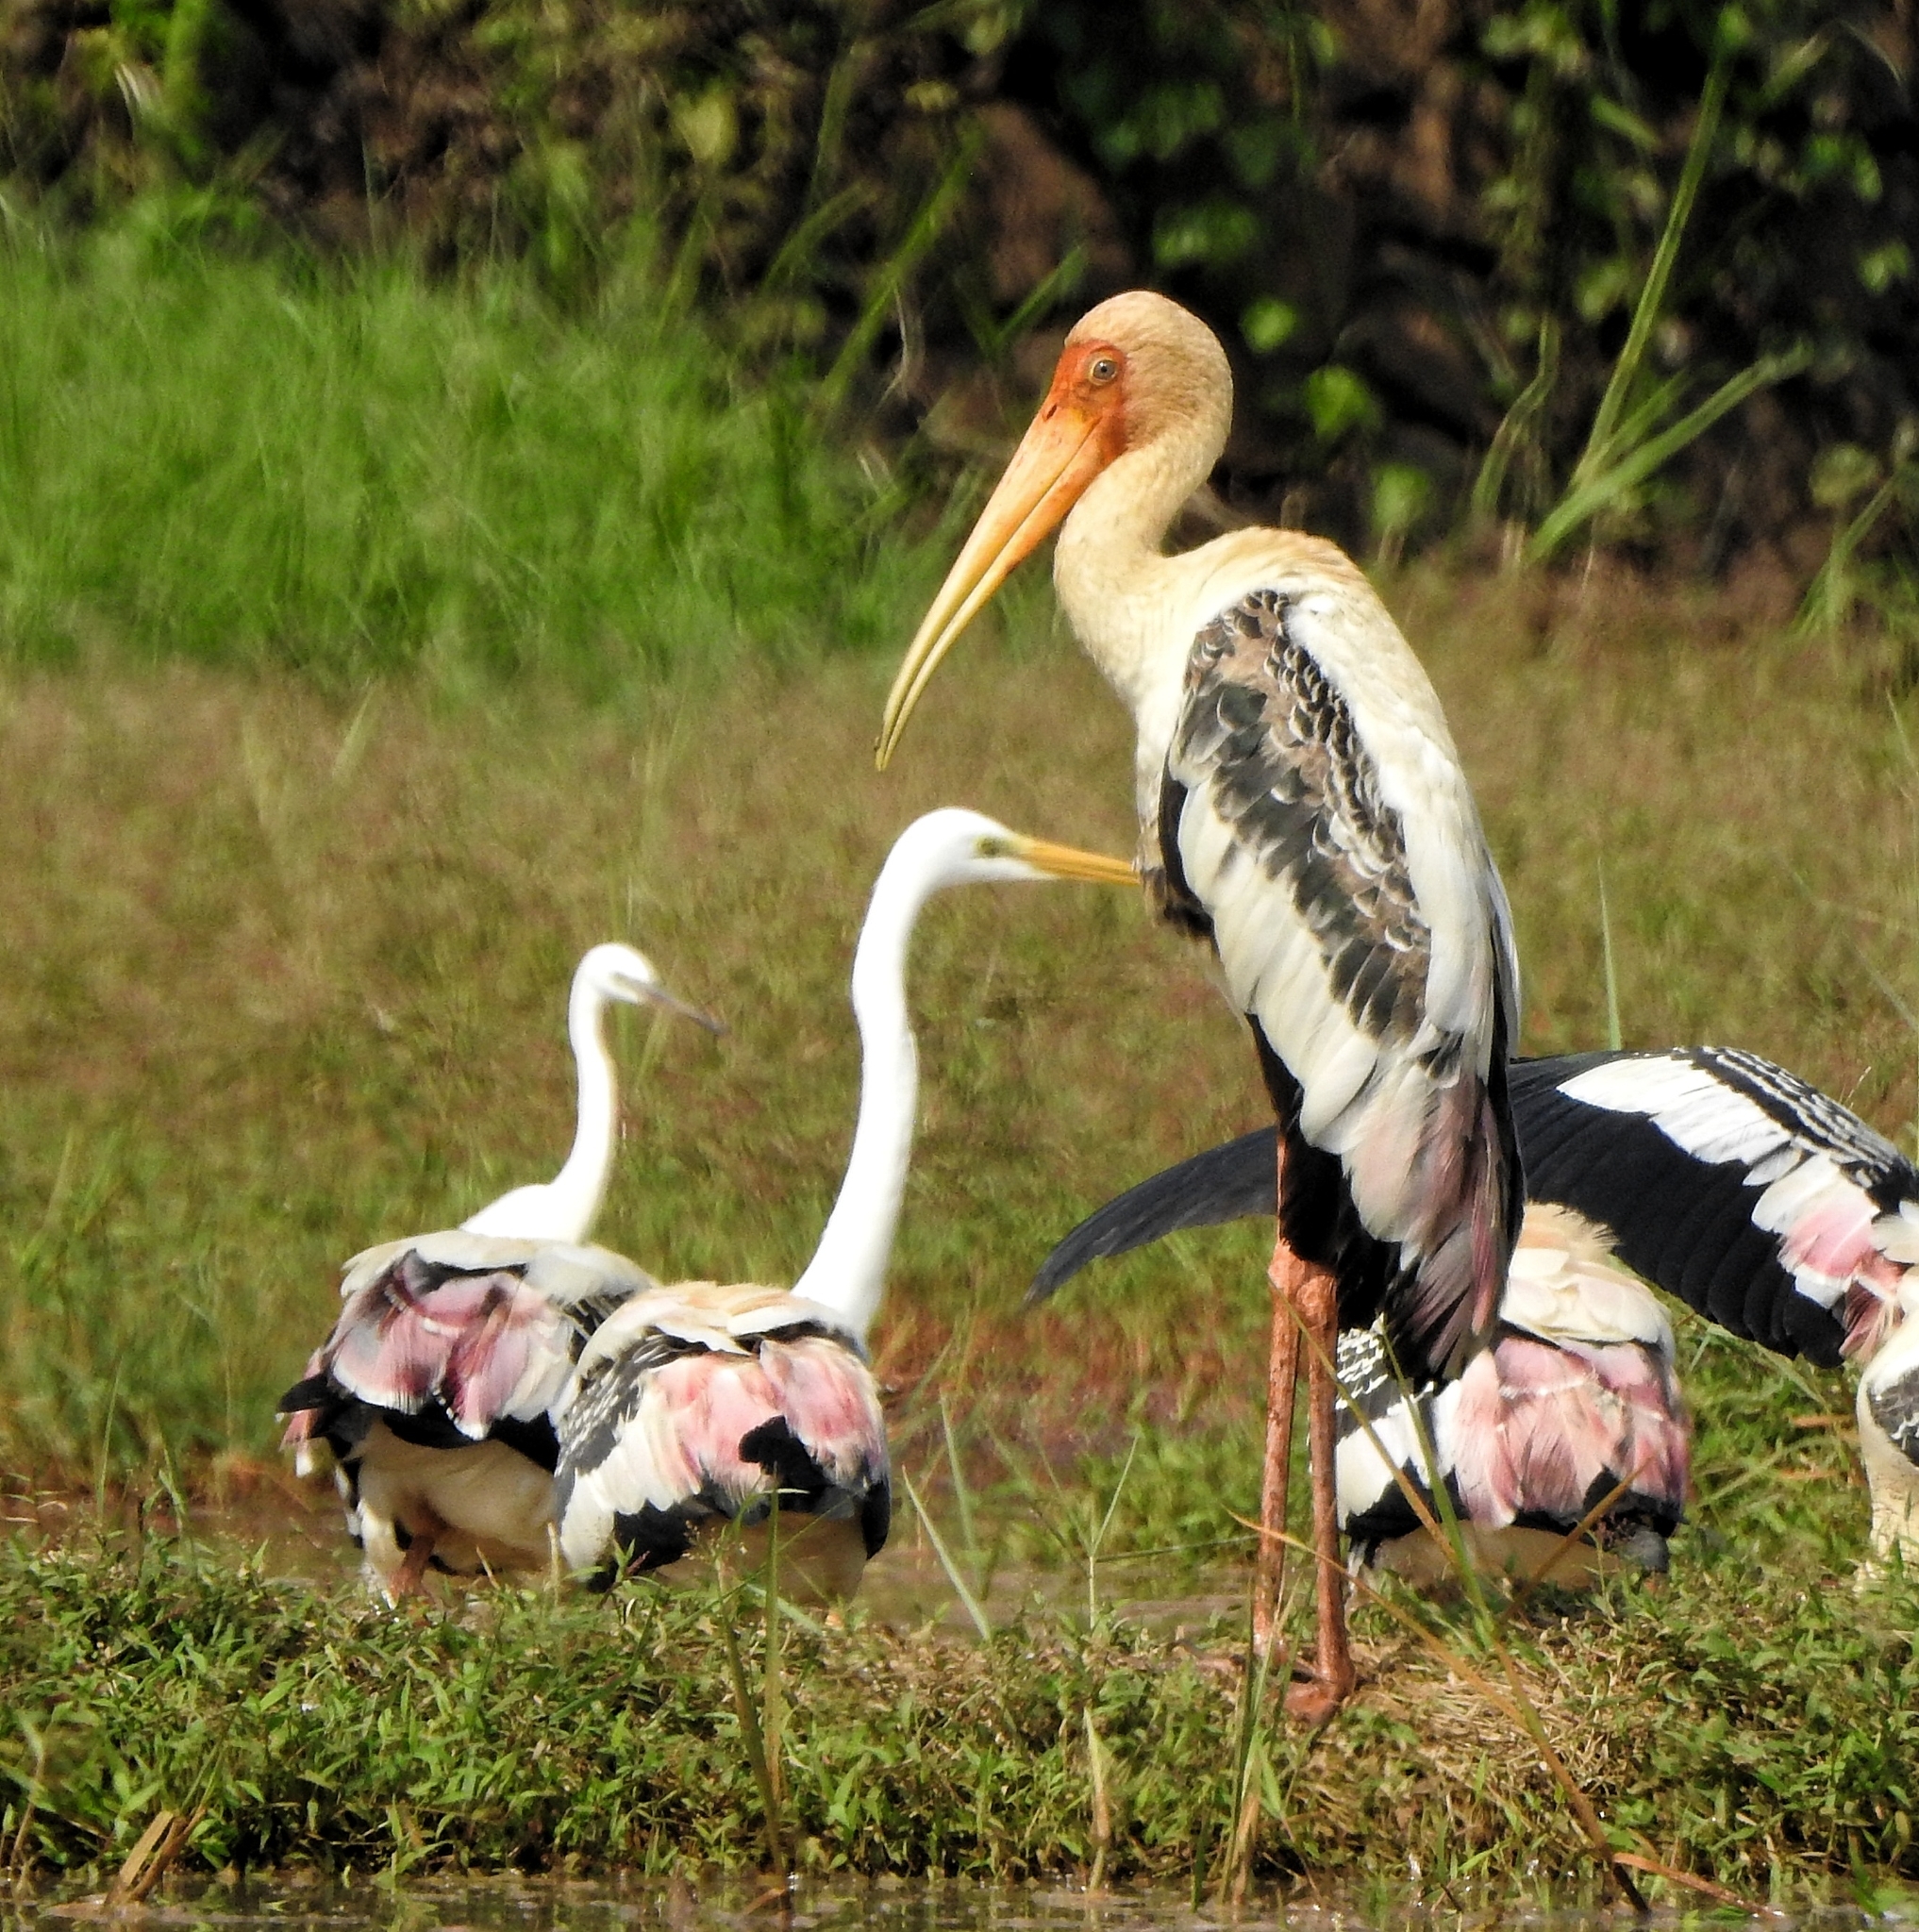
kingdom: Animalia
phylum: Chordata
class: Aves
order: Ciconiiformes
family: Ciconiidae
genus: Mycteria
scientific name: Mycteria leucocephala
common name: Painted stork
